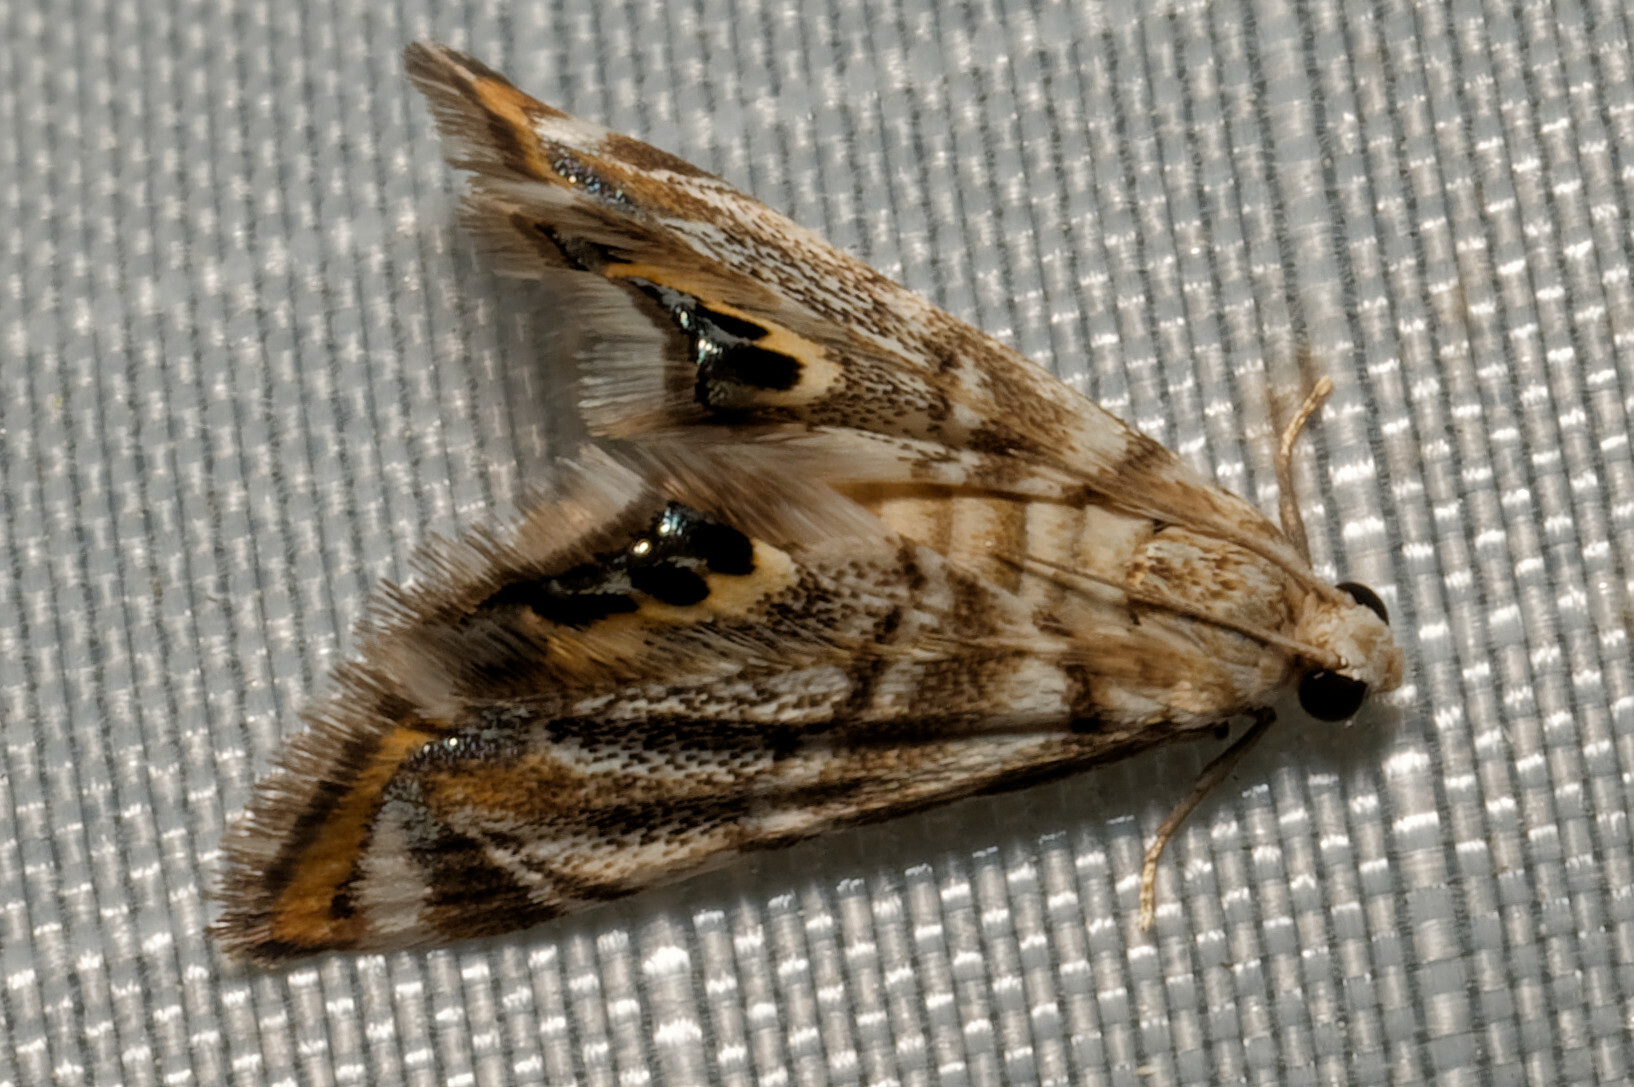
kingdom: Animalia
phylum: Arthropoda
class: Insecta
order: Lepidoptera
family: Crambidae
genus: Eoparargyractis
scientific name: Eoparargyractis irroratalis
